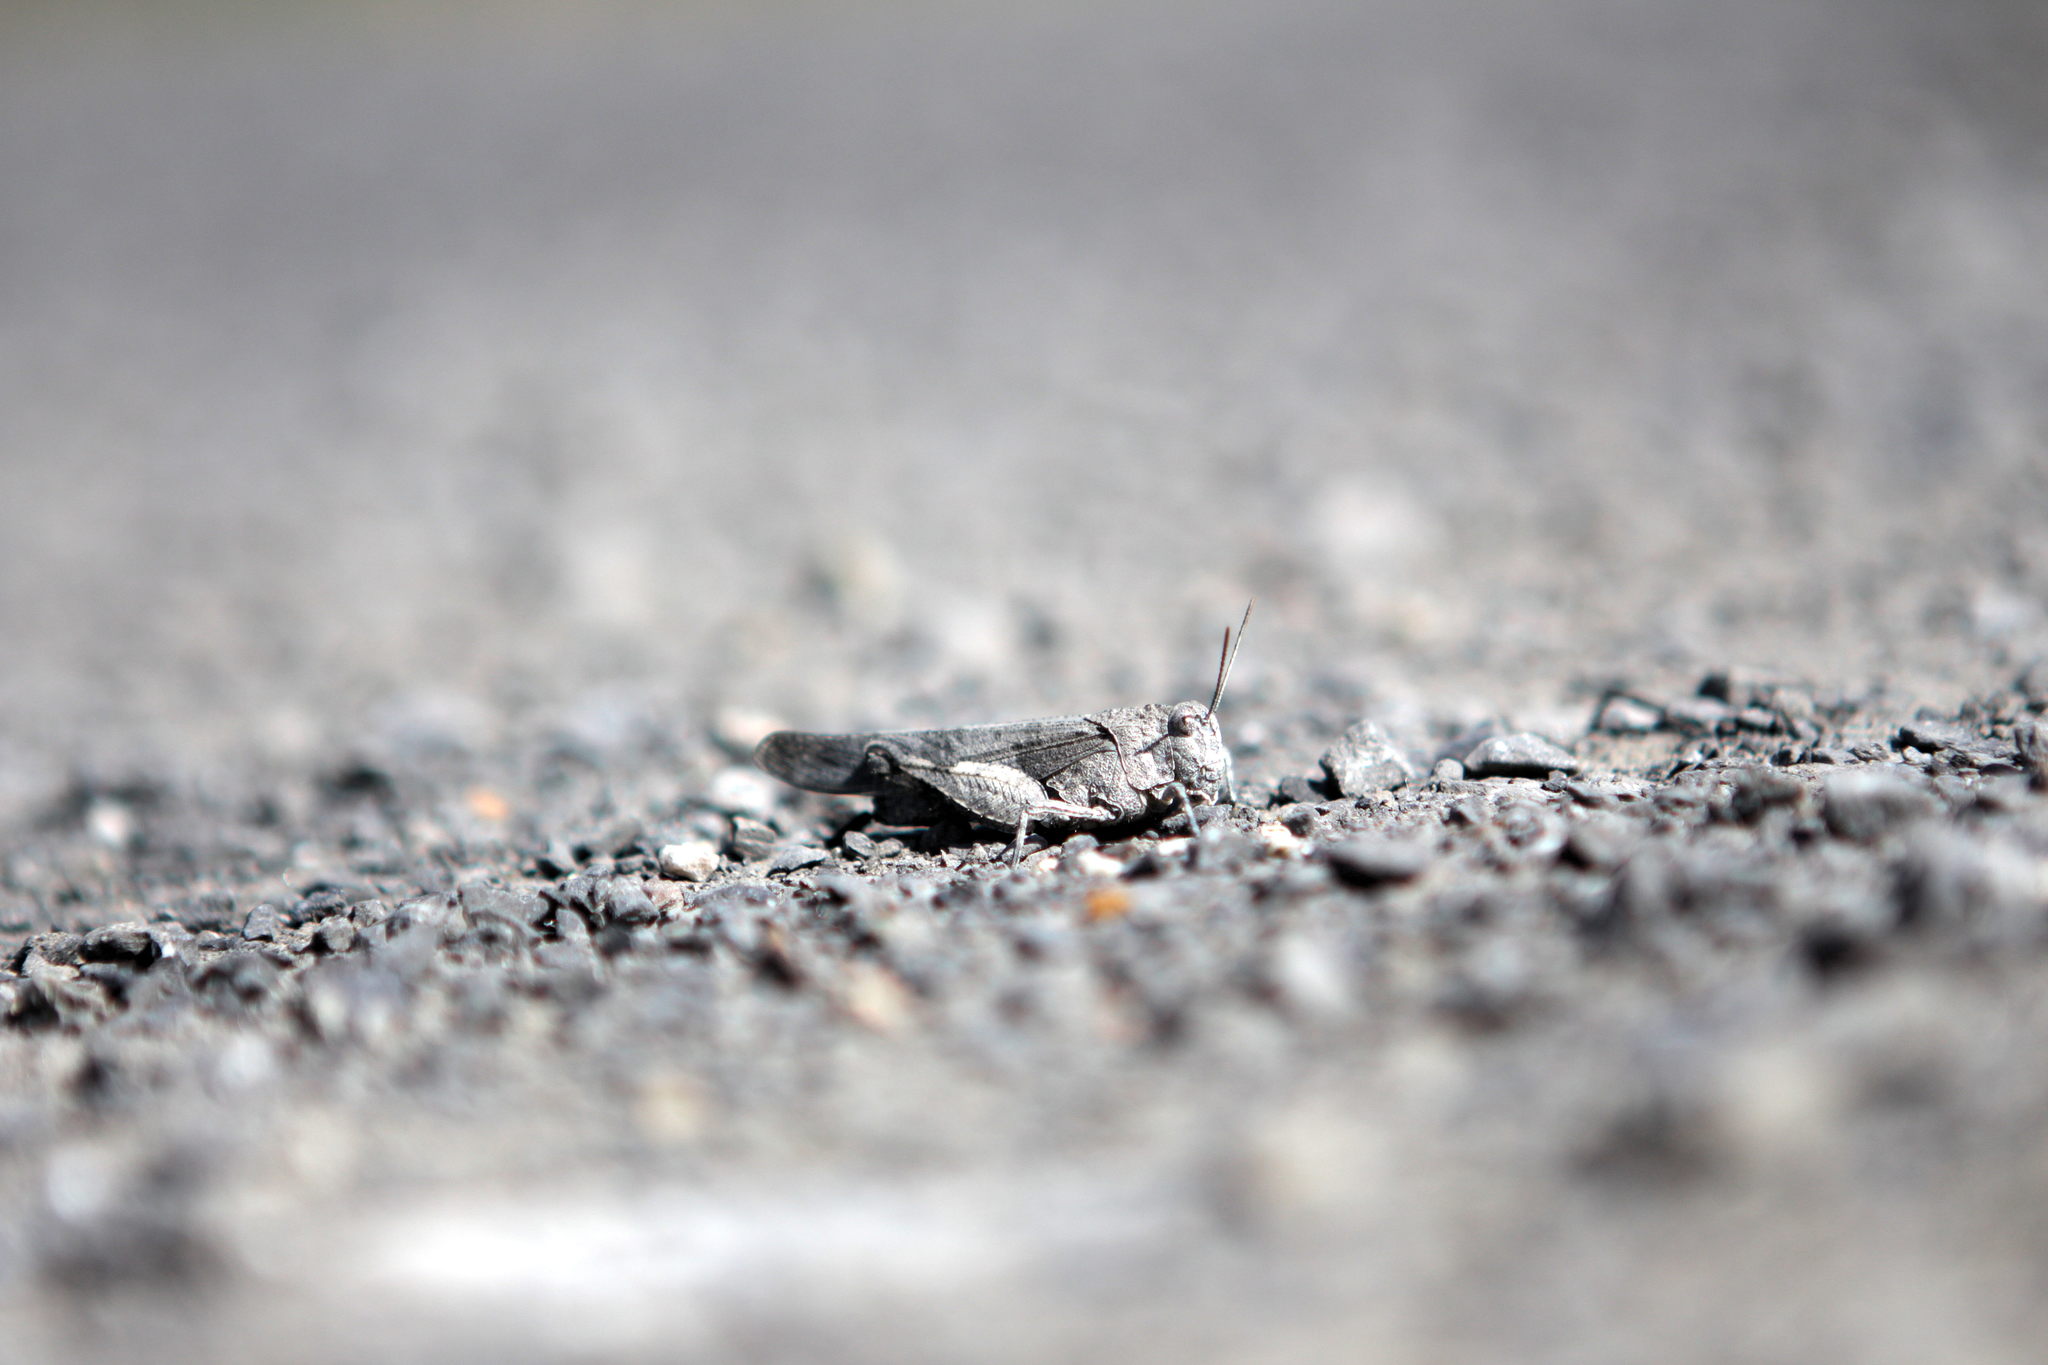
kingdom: Animalia
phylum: Arthropoda
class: Insecta
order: Orthoptera
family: Acrididae
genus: Oedipoda
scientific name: Oedipoda caerulescens
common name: Blue-winged grasshopper
